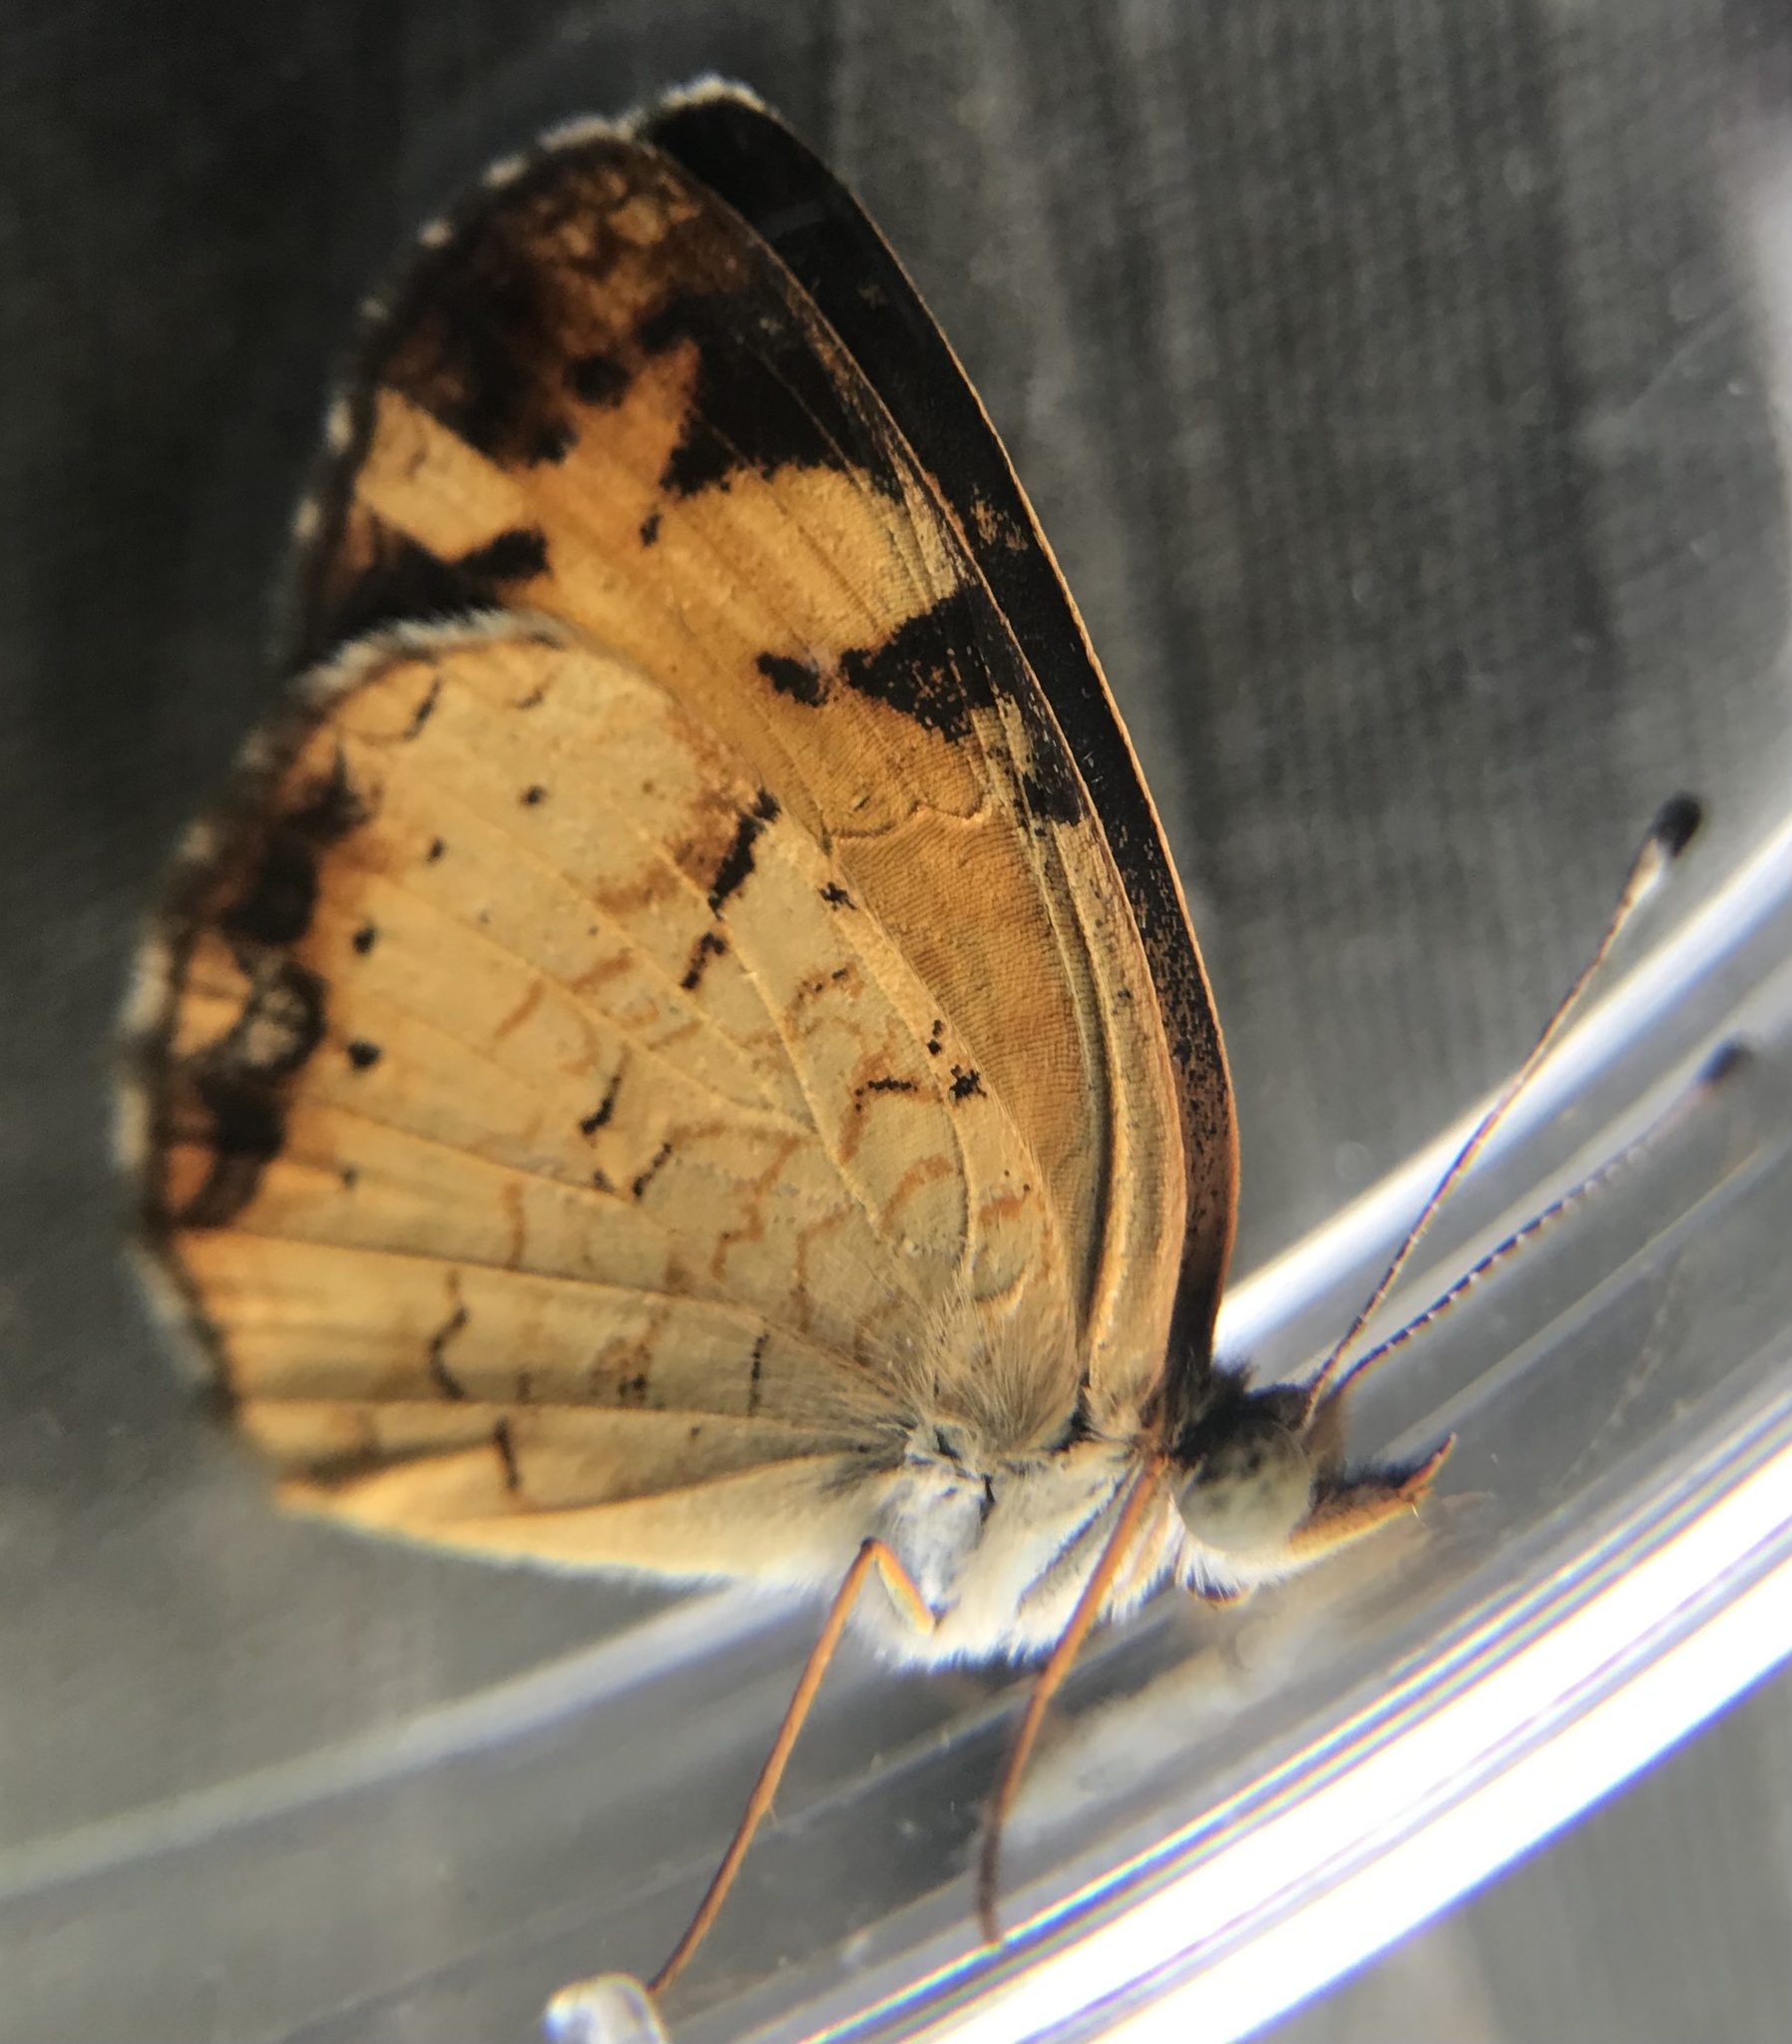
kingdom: Animalia
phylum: Arthropoda
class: Insecta
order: Lepidoptera
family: Nymphalidae
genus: Phyciodes
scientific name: Phyciodes tharos
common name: Pearl crescent
